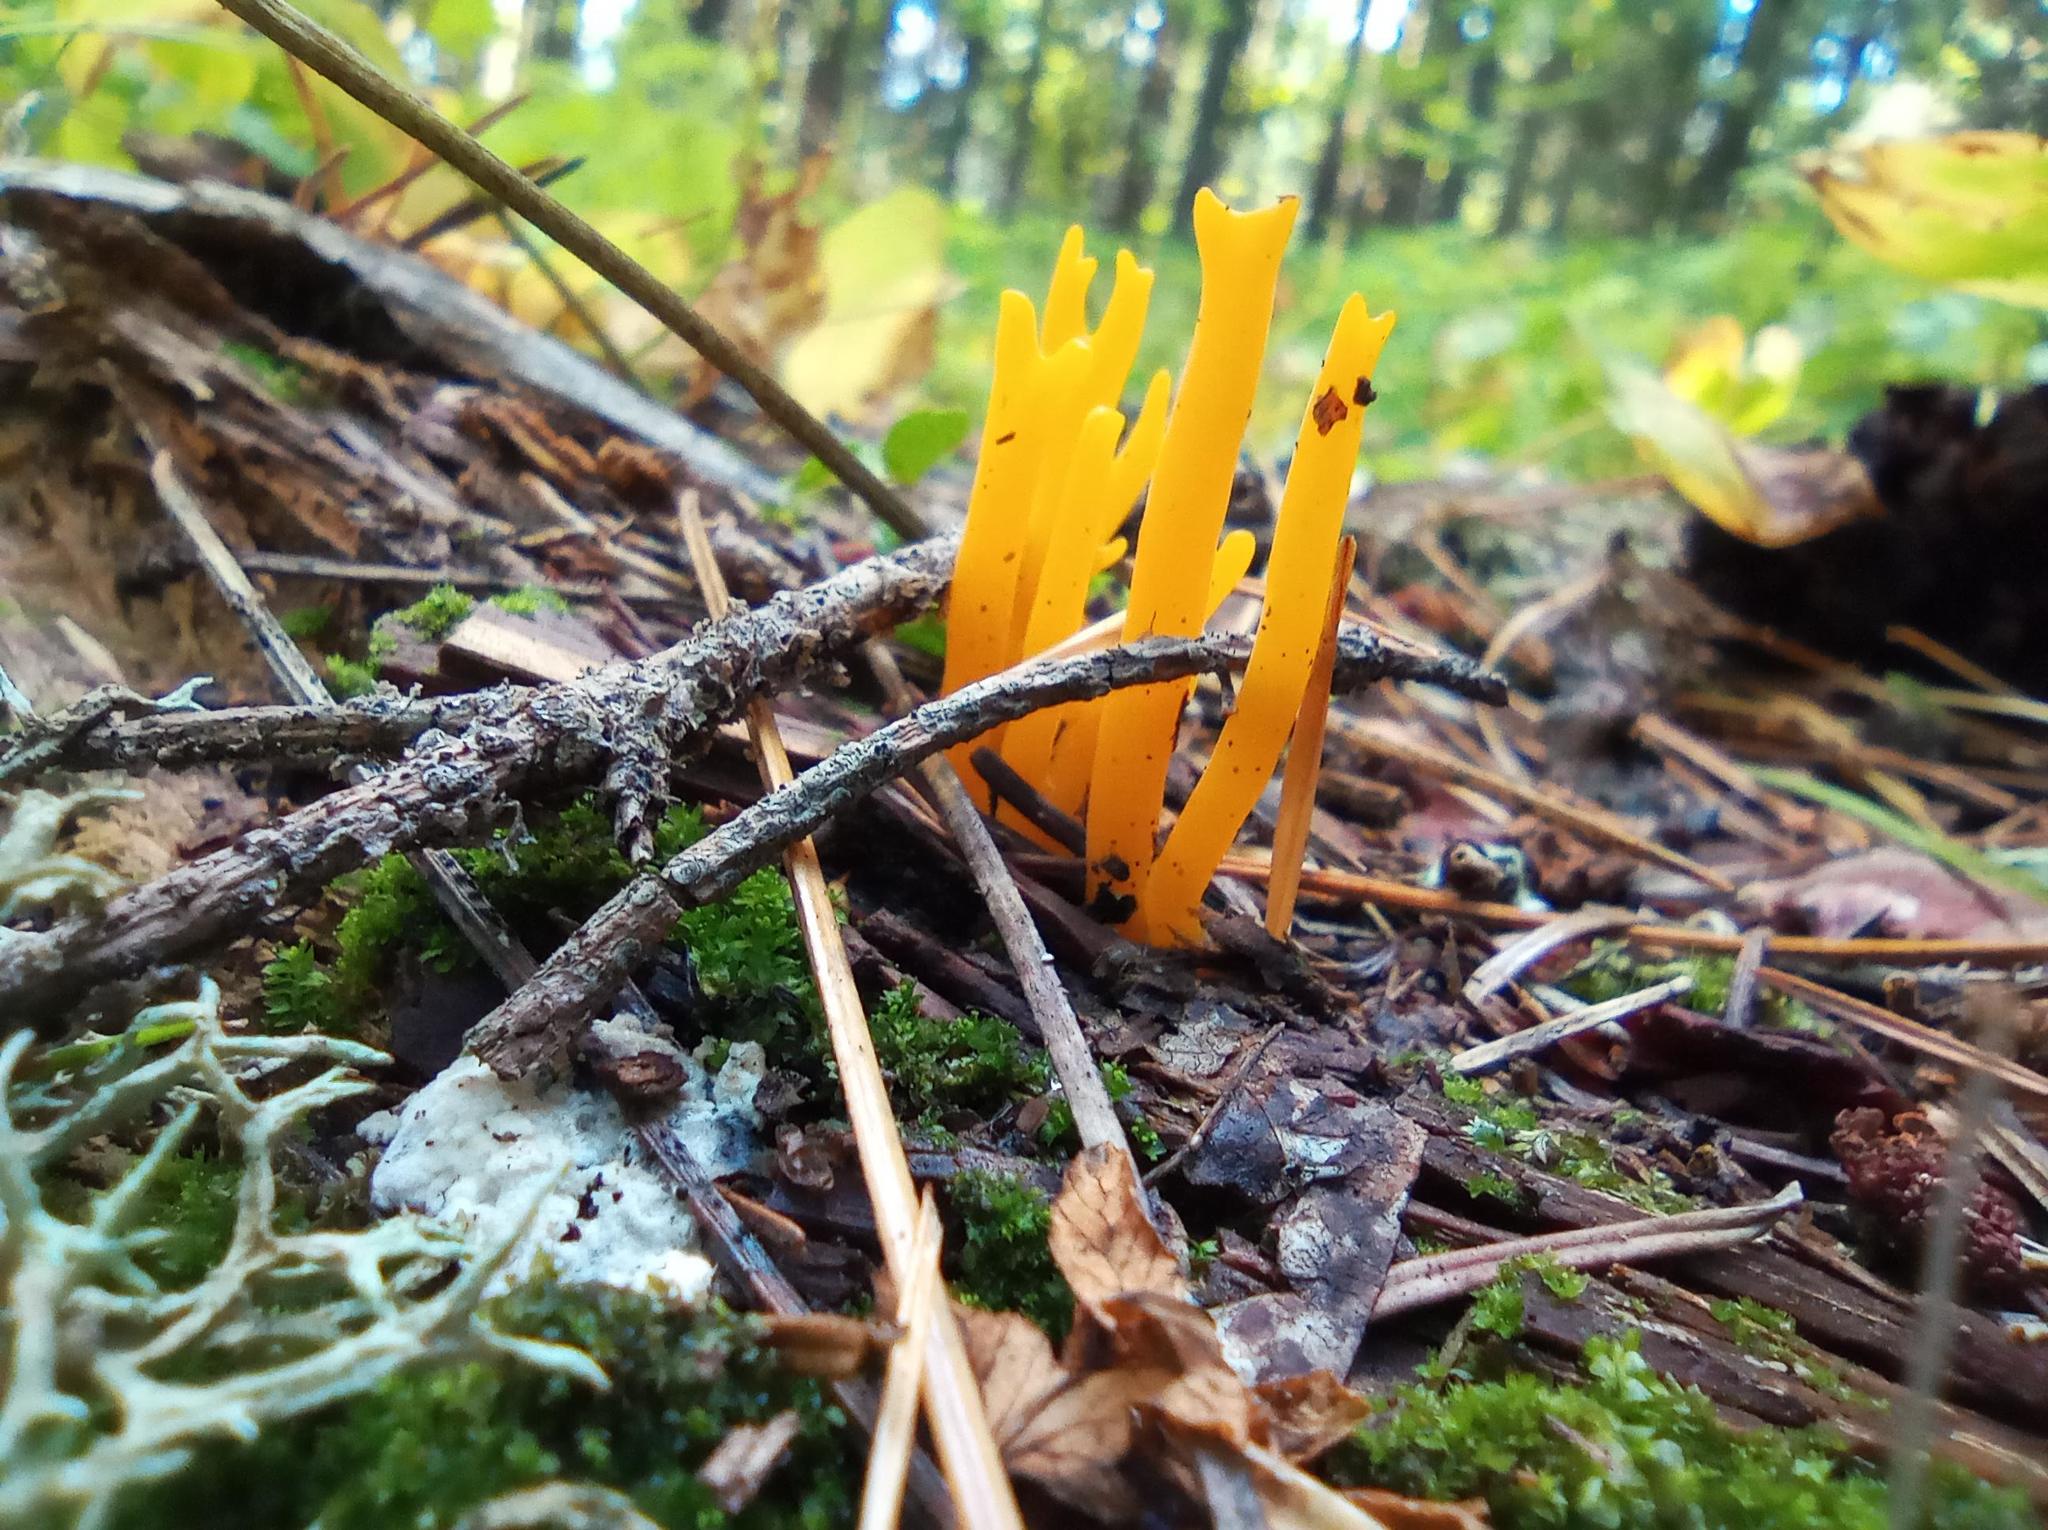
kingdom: Fungi
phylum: Basidiomycota
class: Dacrymycetes
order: Dacrymycetales
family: Dacrymycetaceae
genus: Calocera
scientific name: Calocera viscosa
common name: Yellow stagshorn
